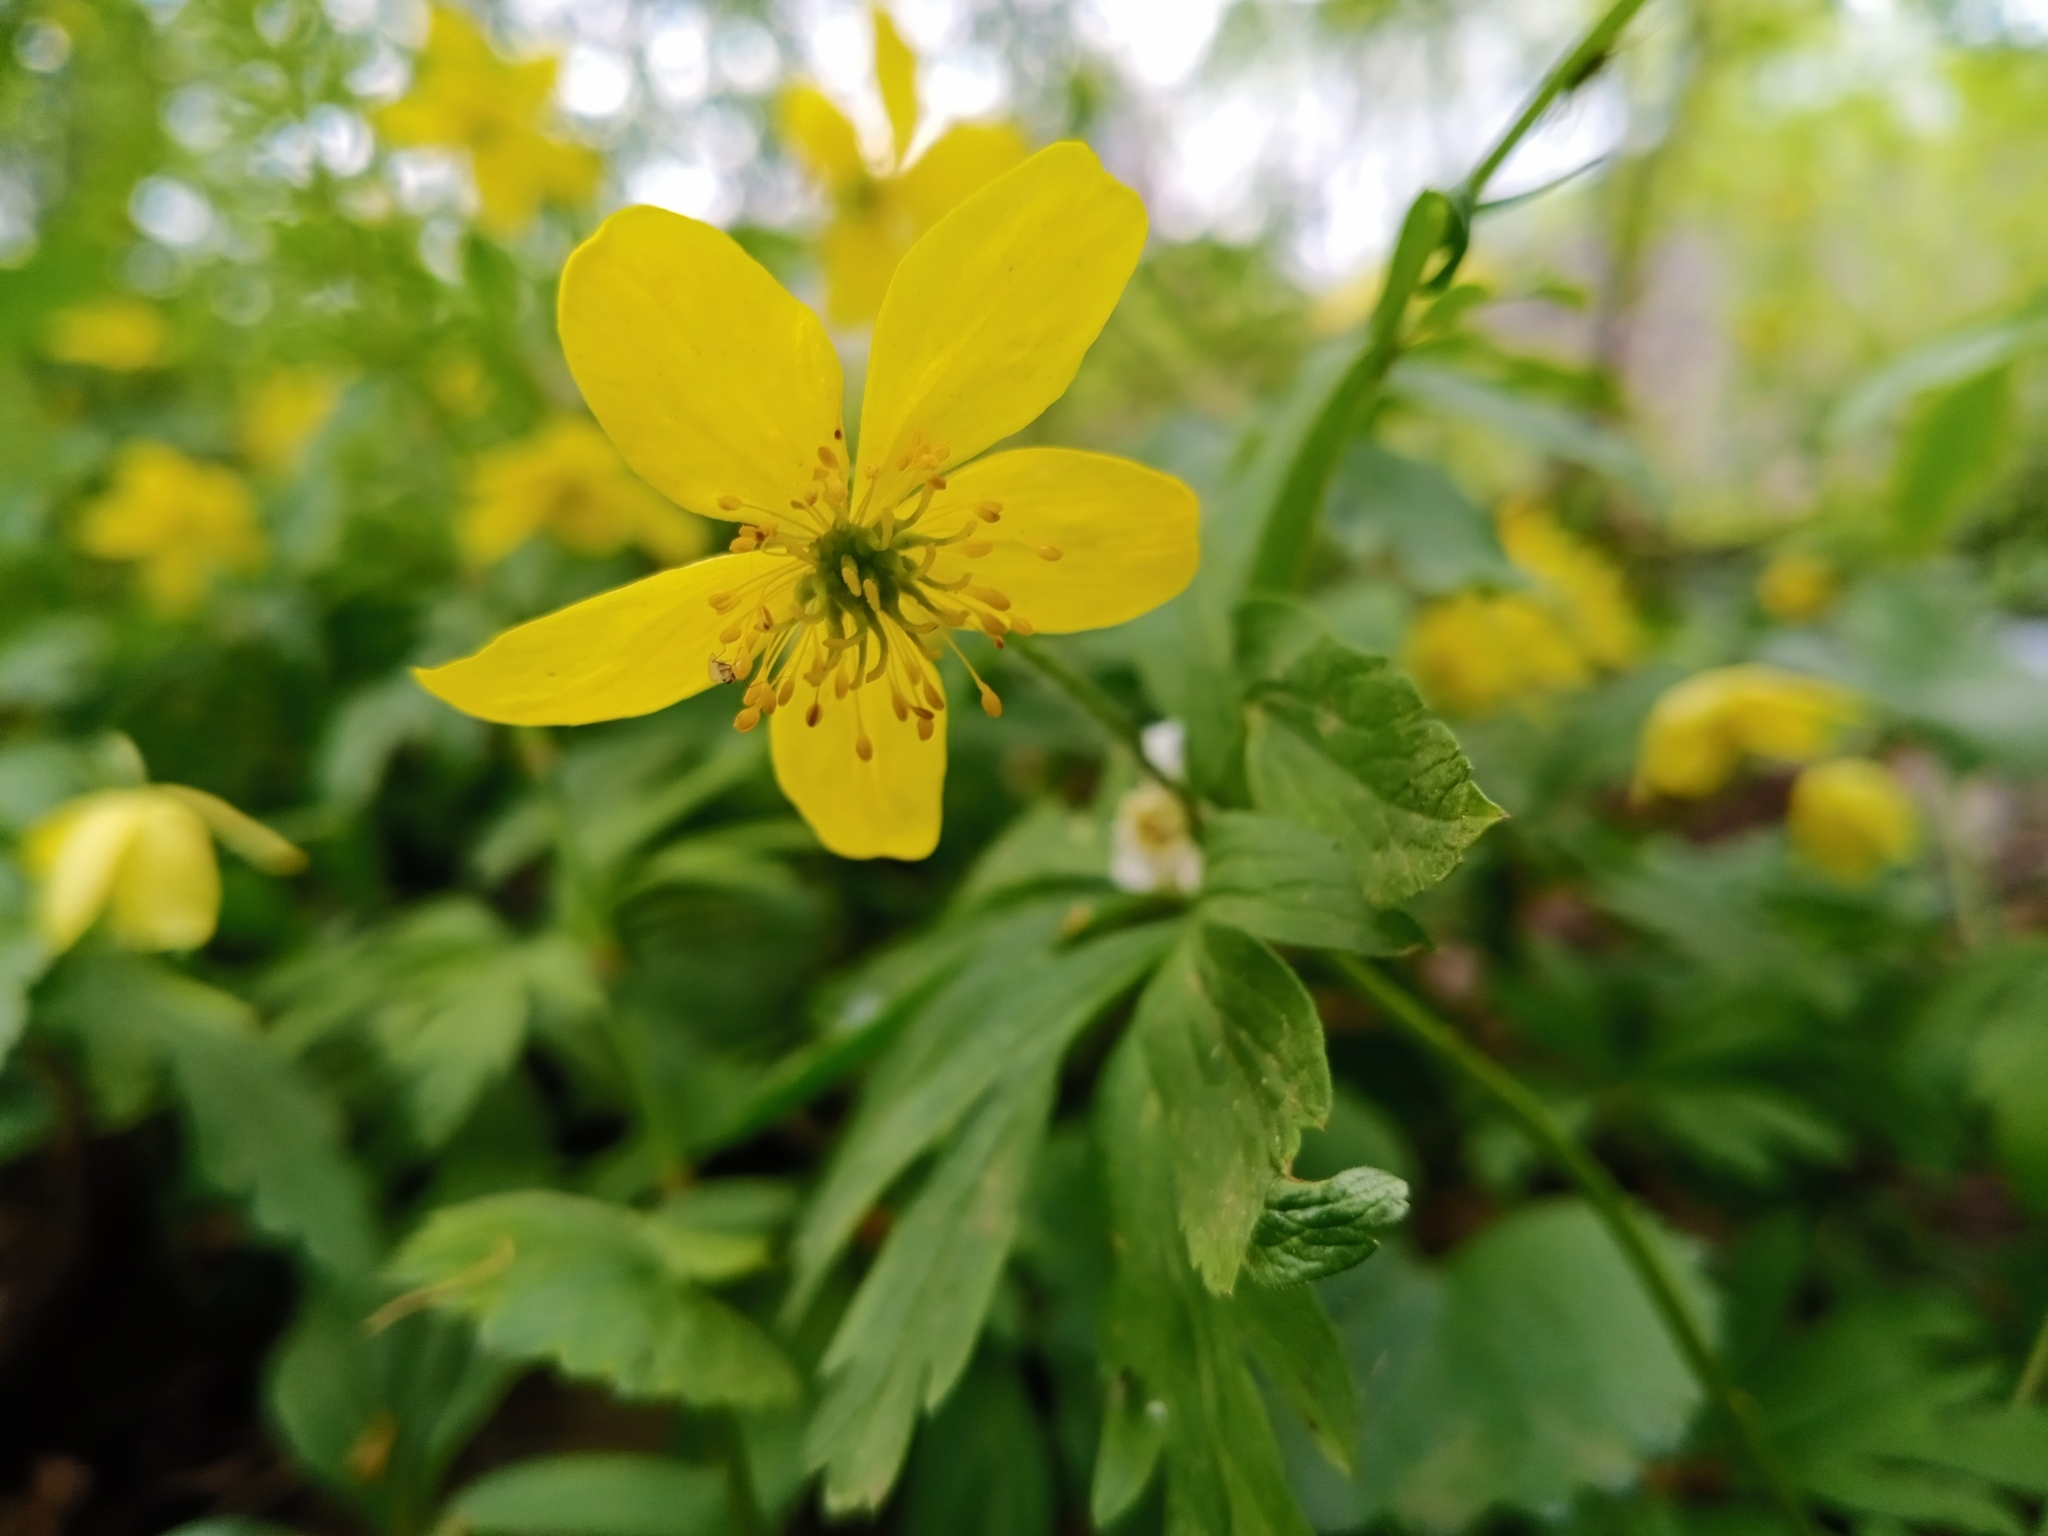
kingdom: Plantae
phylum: Tracheophyta
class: Magnoliopsida
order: Ranunculales
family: Ranunculaceae
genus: Anemone
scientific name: Anemone ranunculoides
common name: Yellow anemone
